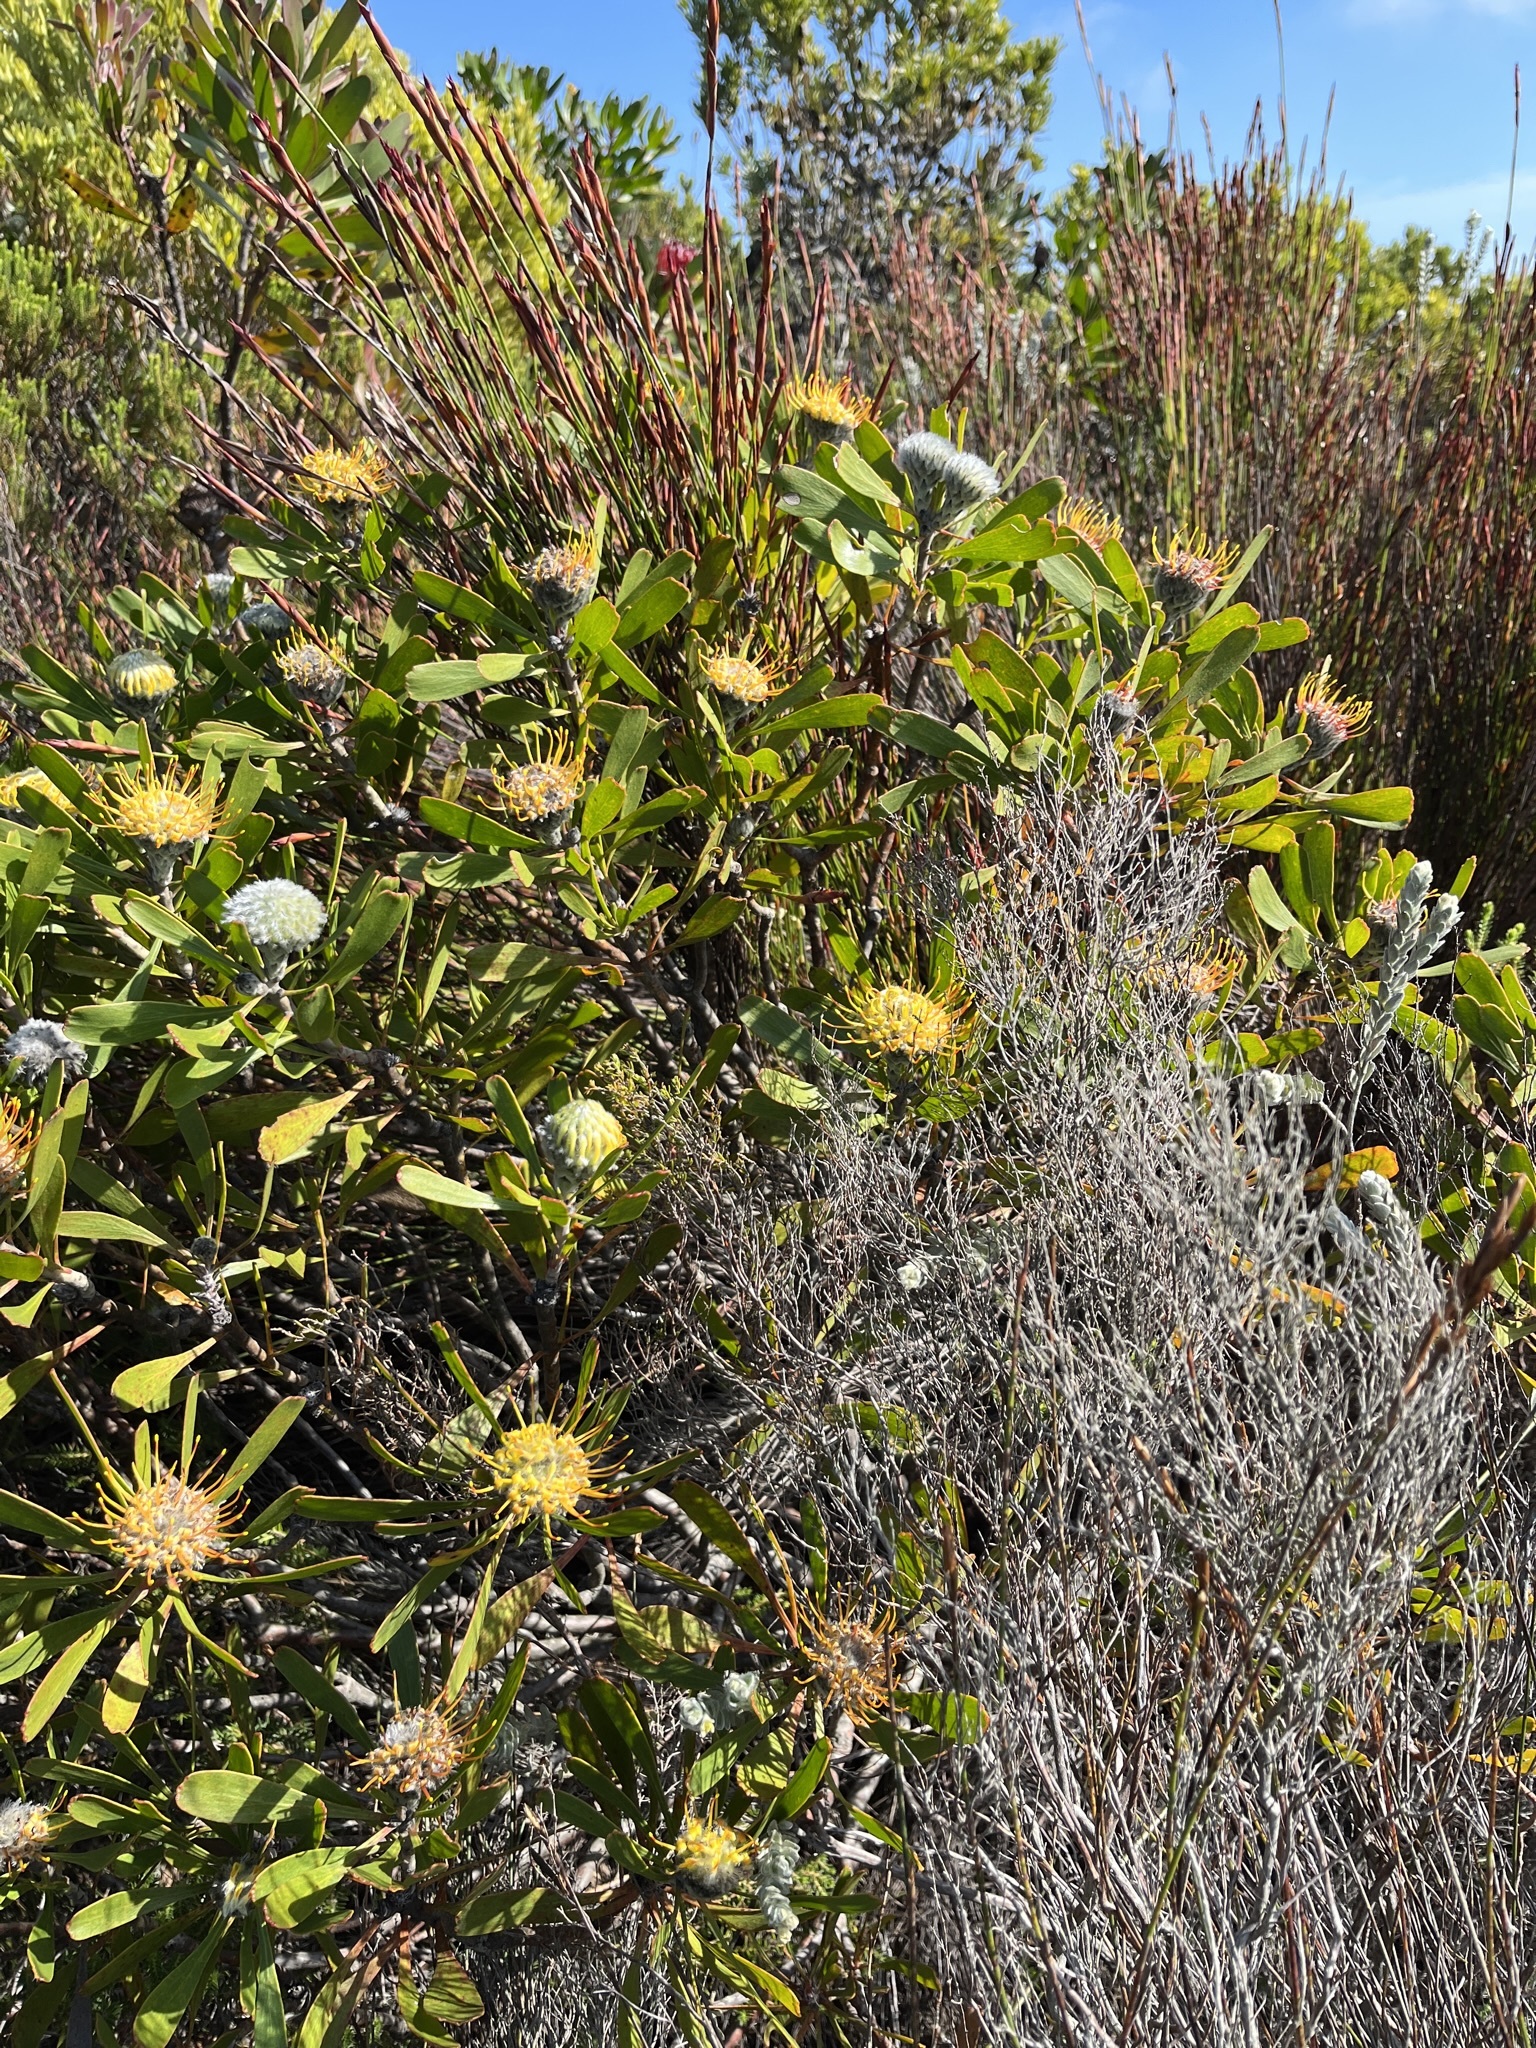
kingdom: Plantae
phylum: Tracheophyta
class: Magnoliopsida
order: Proteales
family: Proteaceae
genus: Leucospermum
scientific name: Leucospermum truncatum
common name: Limestone pincushion
